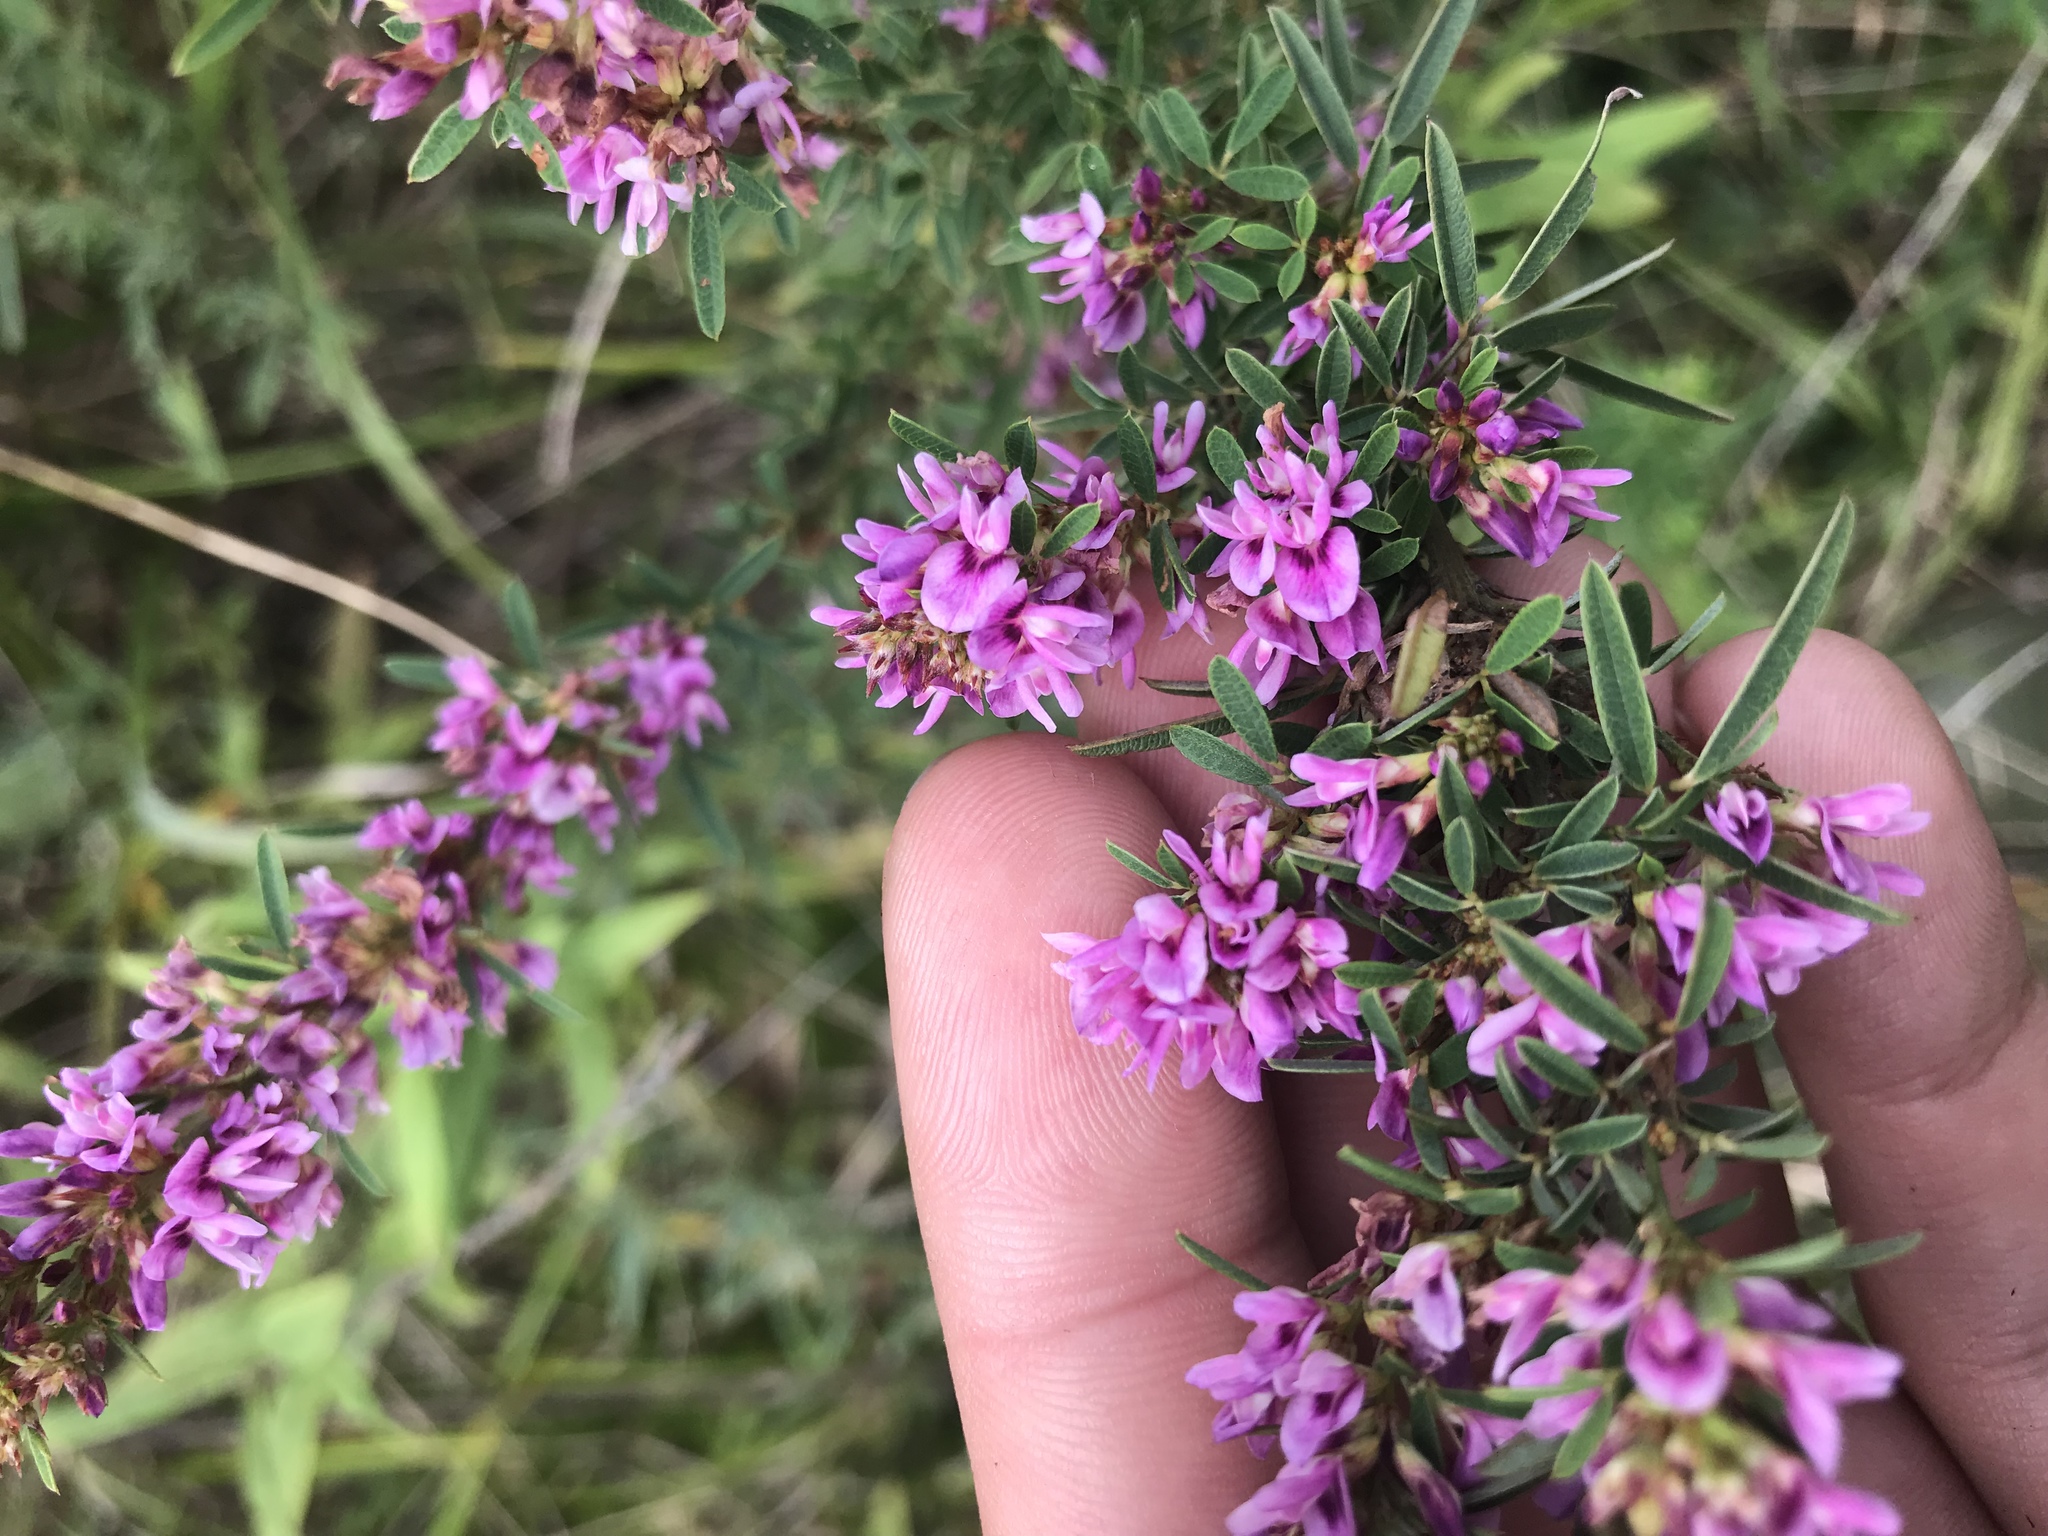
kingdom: Plantae
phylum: Tracheophyta
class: Magnoliopsida
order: Fabales
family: Fabaceae
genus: Lespedeza
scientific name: Lespedeza virginica
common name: Slender bush-clover
